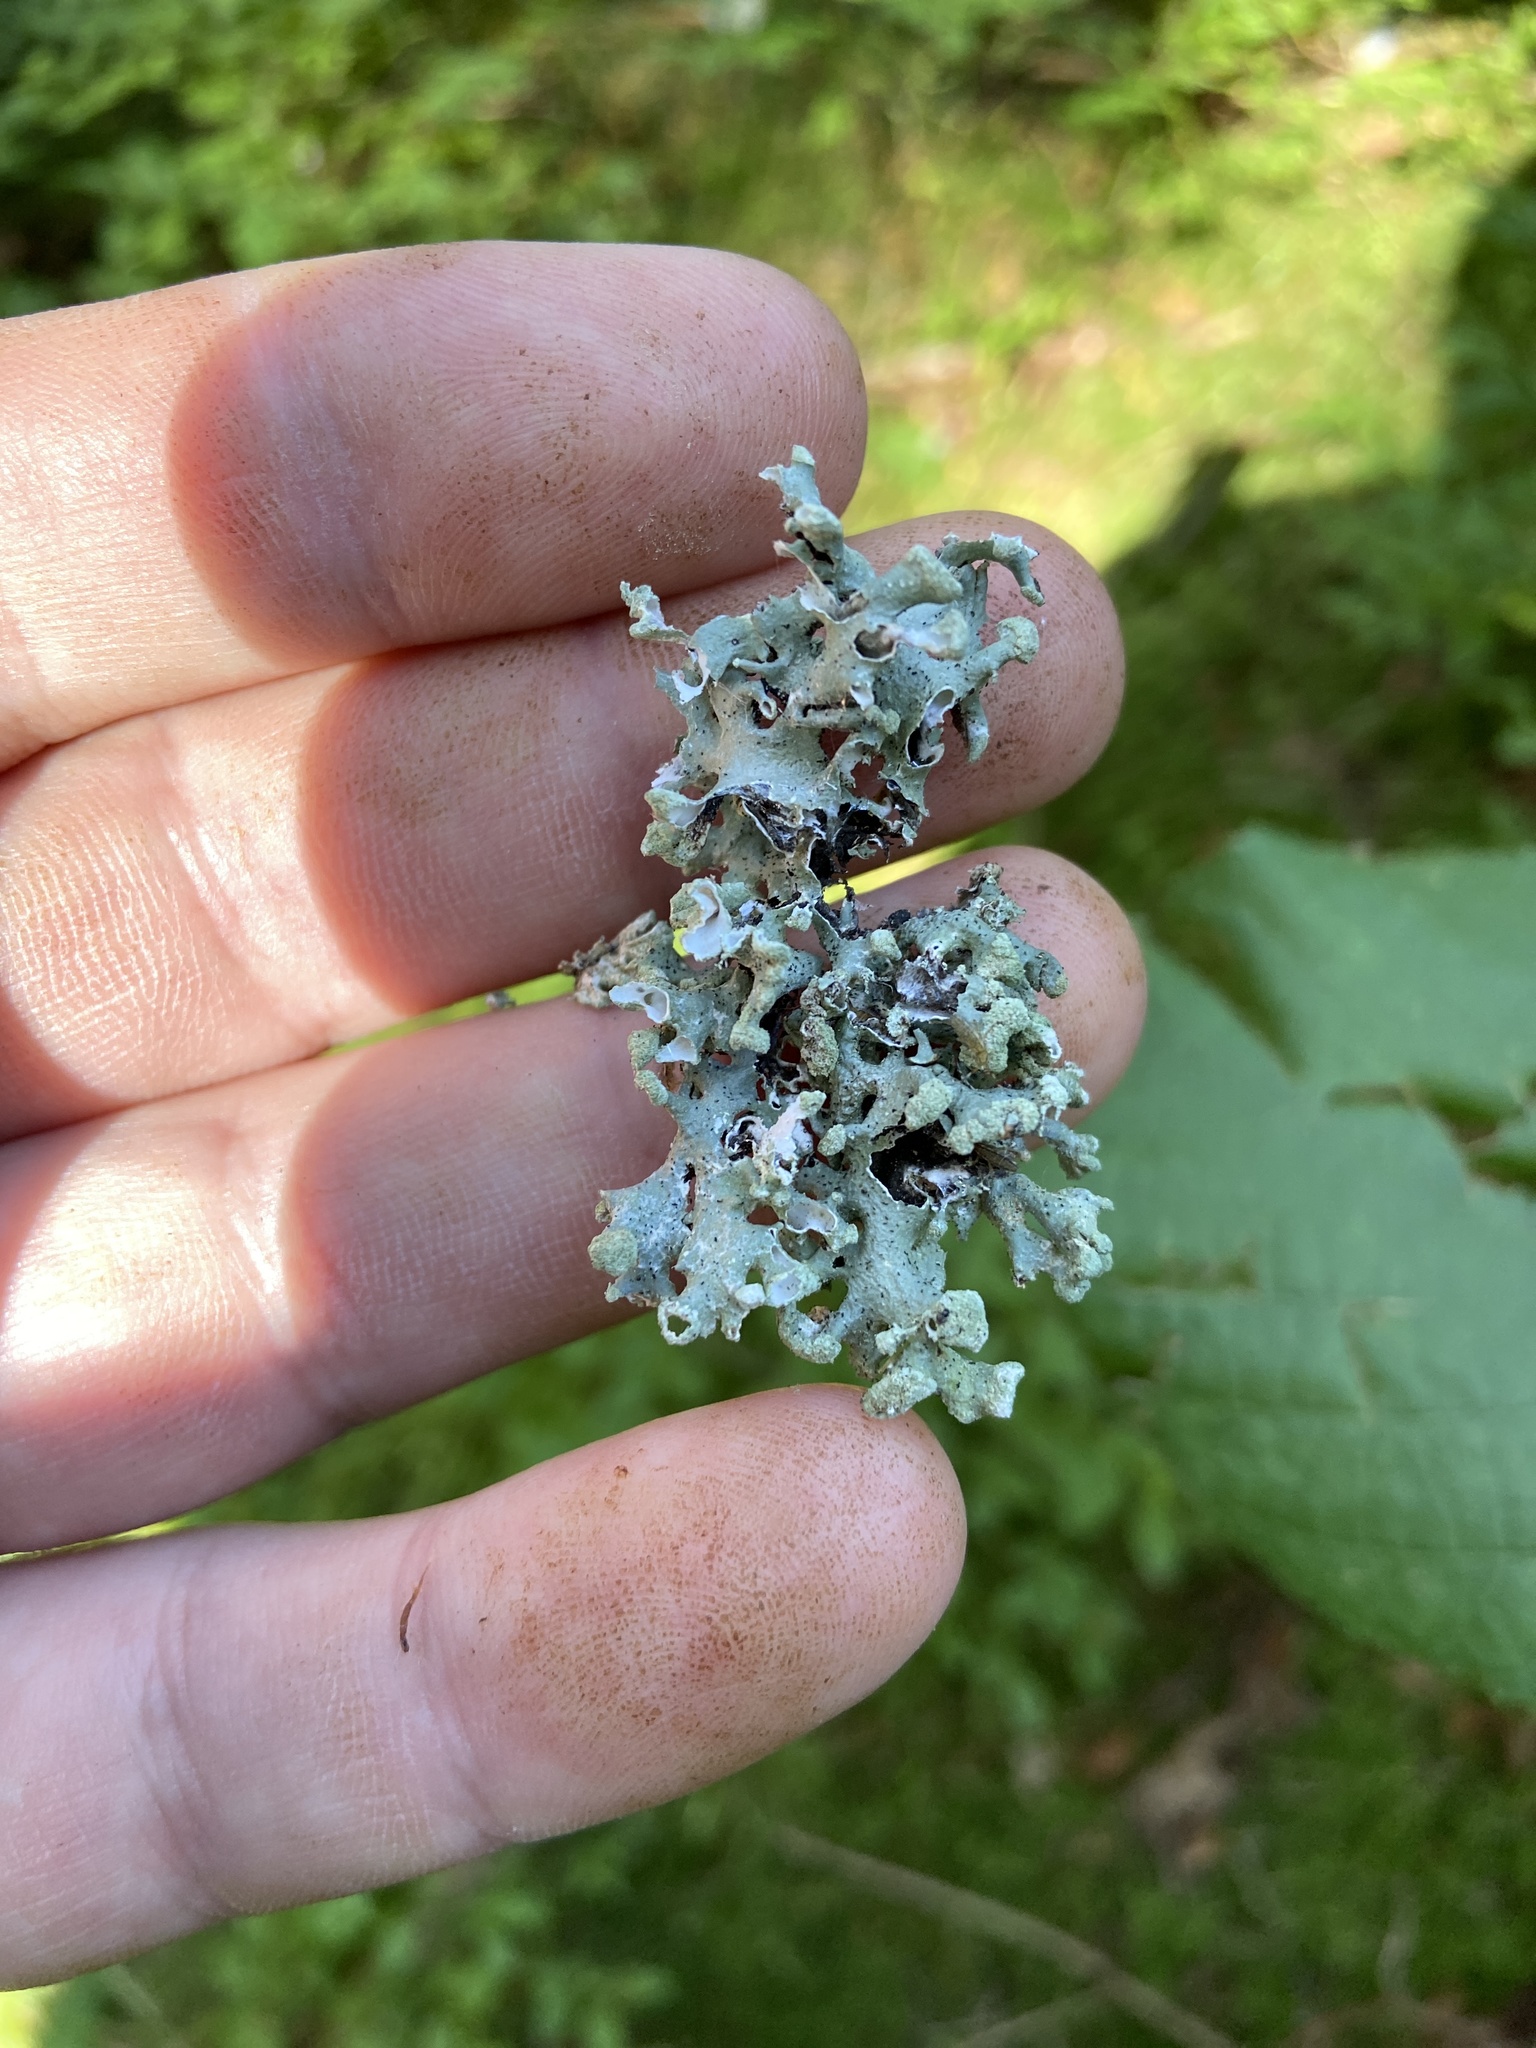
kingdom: Fungi
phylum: Ascomycota
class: Lecanoromycetes
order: Lecanorales
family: Parmeliaceae
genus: Hypogymnia
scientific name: Hypogymnia tubulosa
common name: Powder-headed tube lichen
